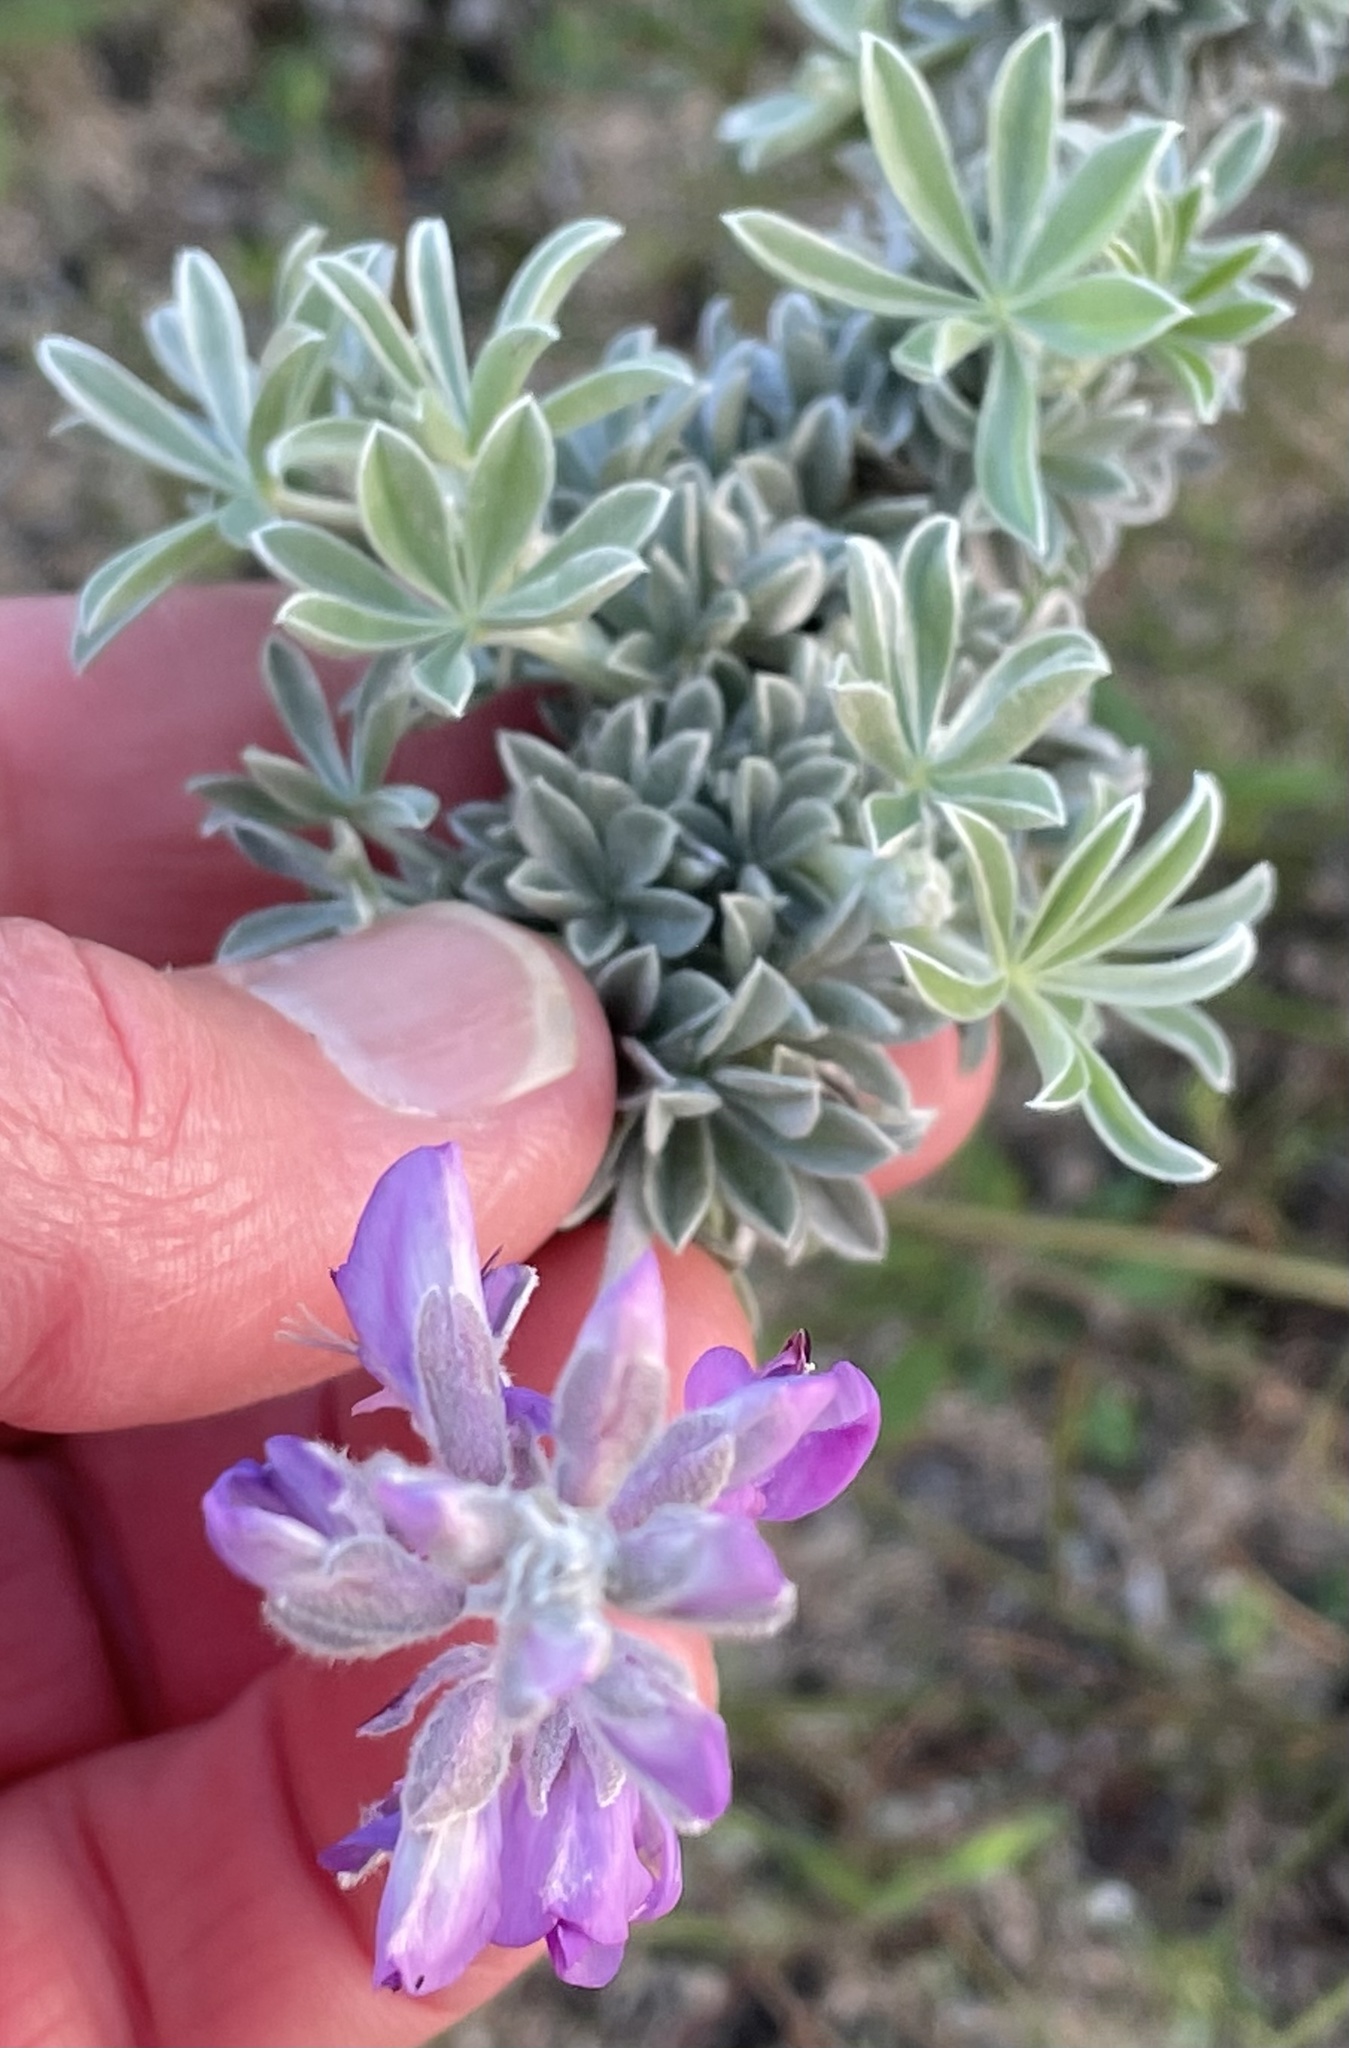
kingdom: Plantae
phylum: Tracheophyta
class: Magnoliopsida
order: Fabales
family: Fabaceae
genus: Lupinus
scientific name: Lupinus chamissonis
